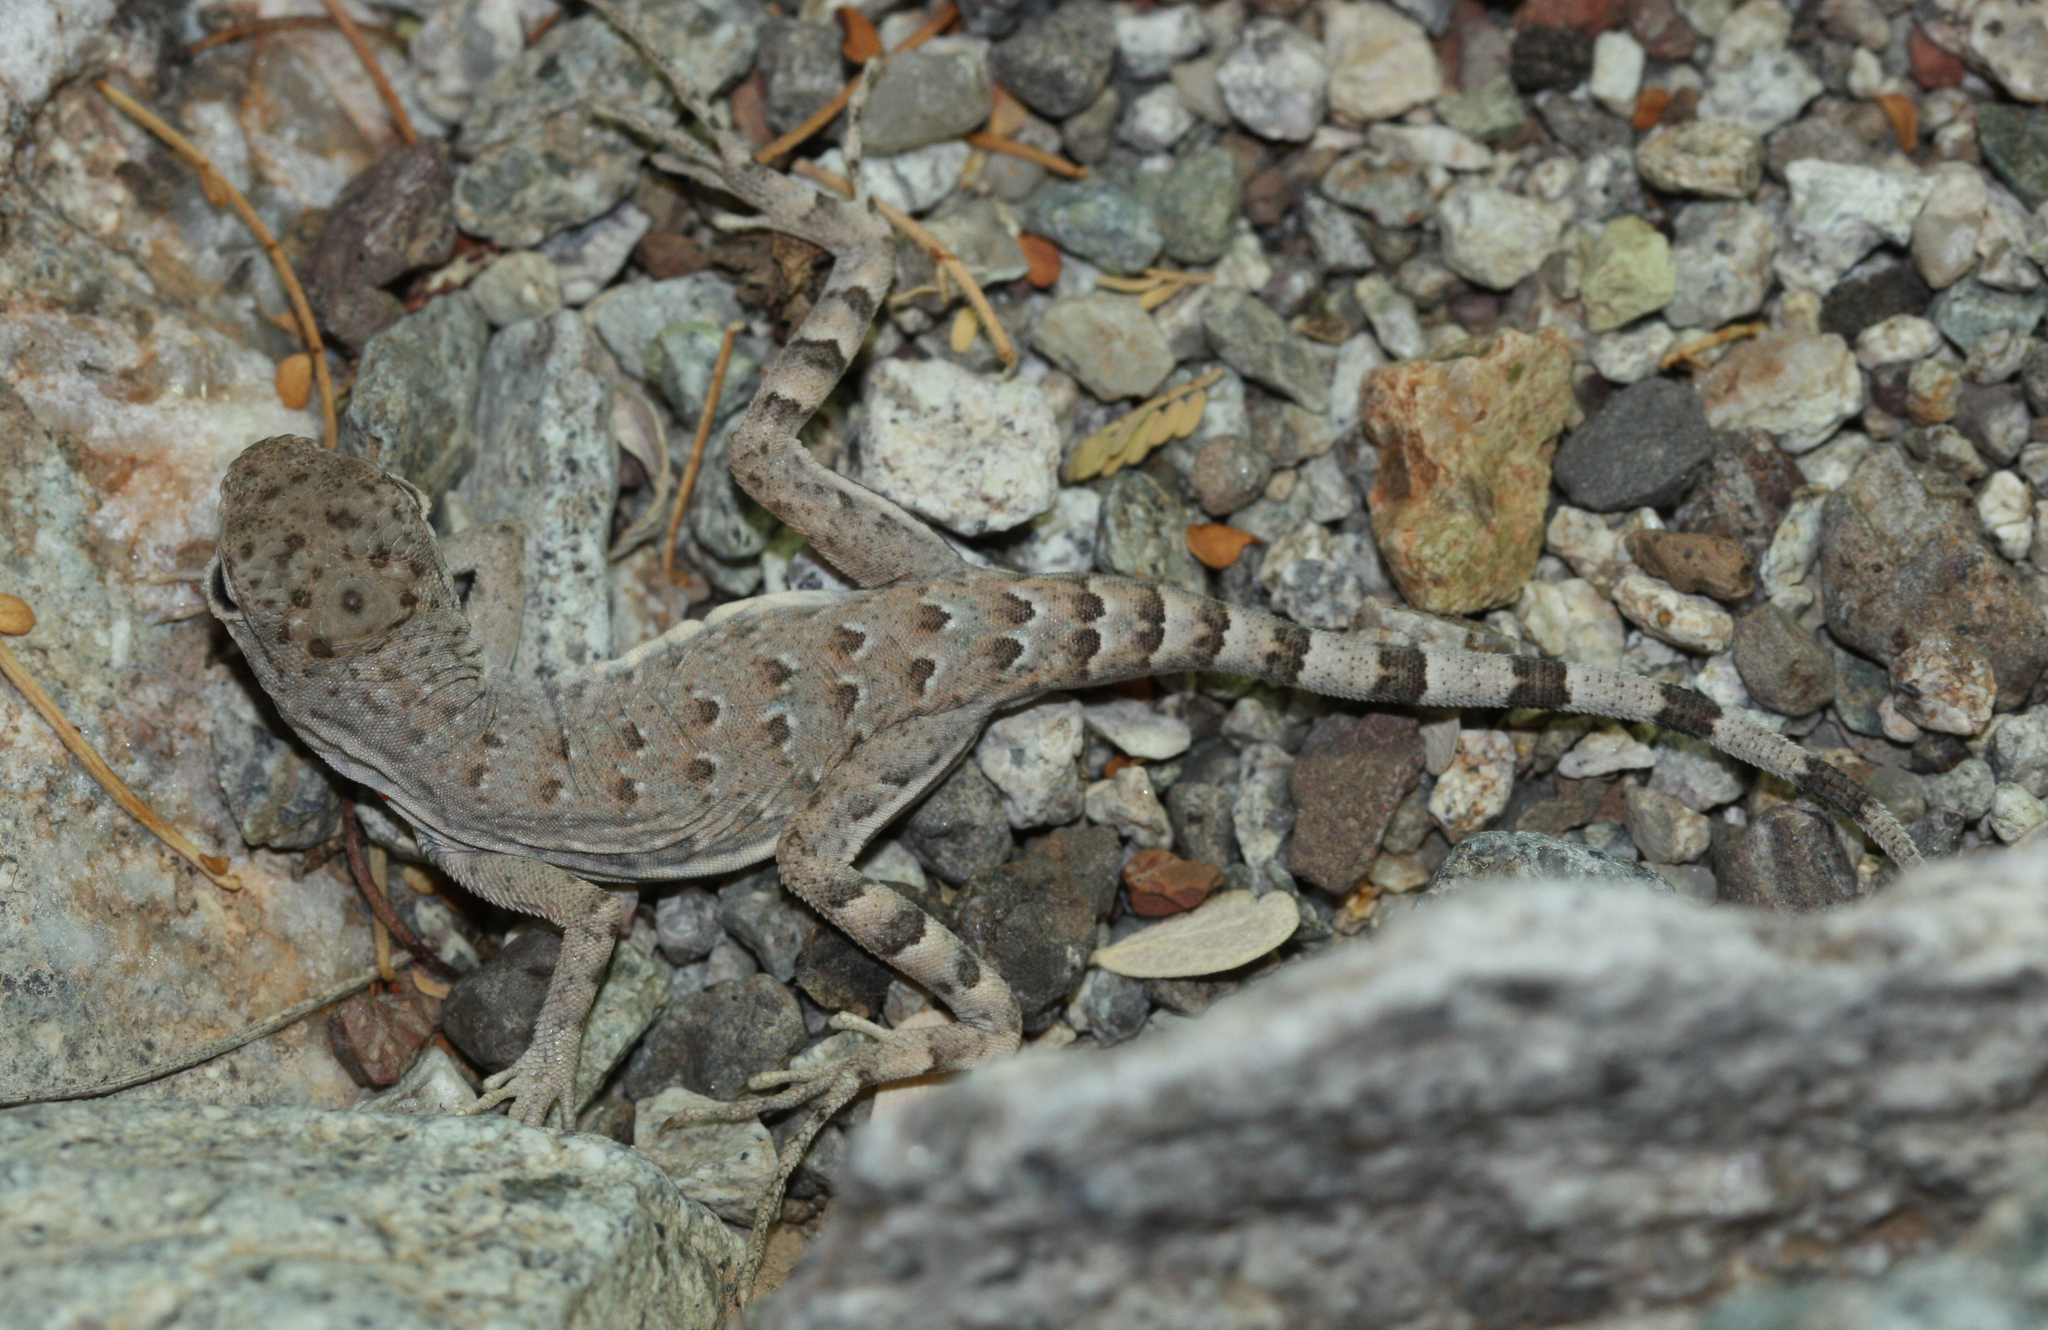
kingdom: Animalia
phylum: Chordata
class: Squamata
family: Phrynosomatidae
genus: Callisaurus
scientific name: Callisaurus draconoides
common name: Zebra-tailed lizard
